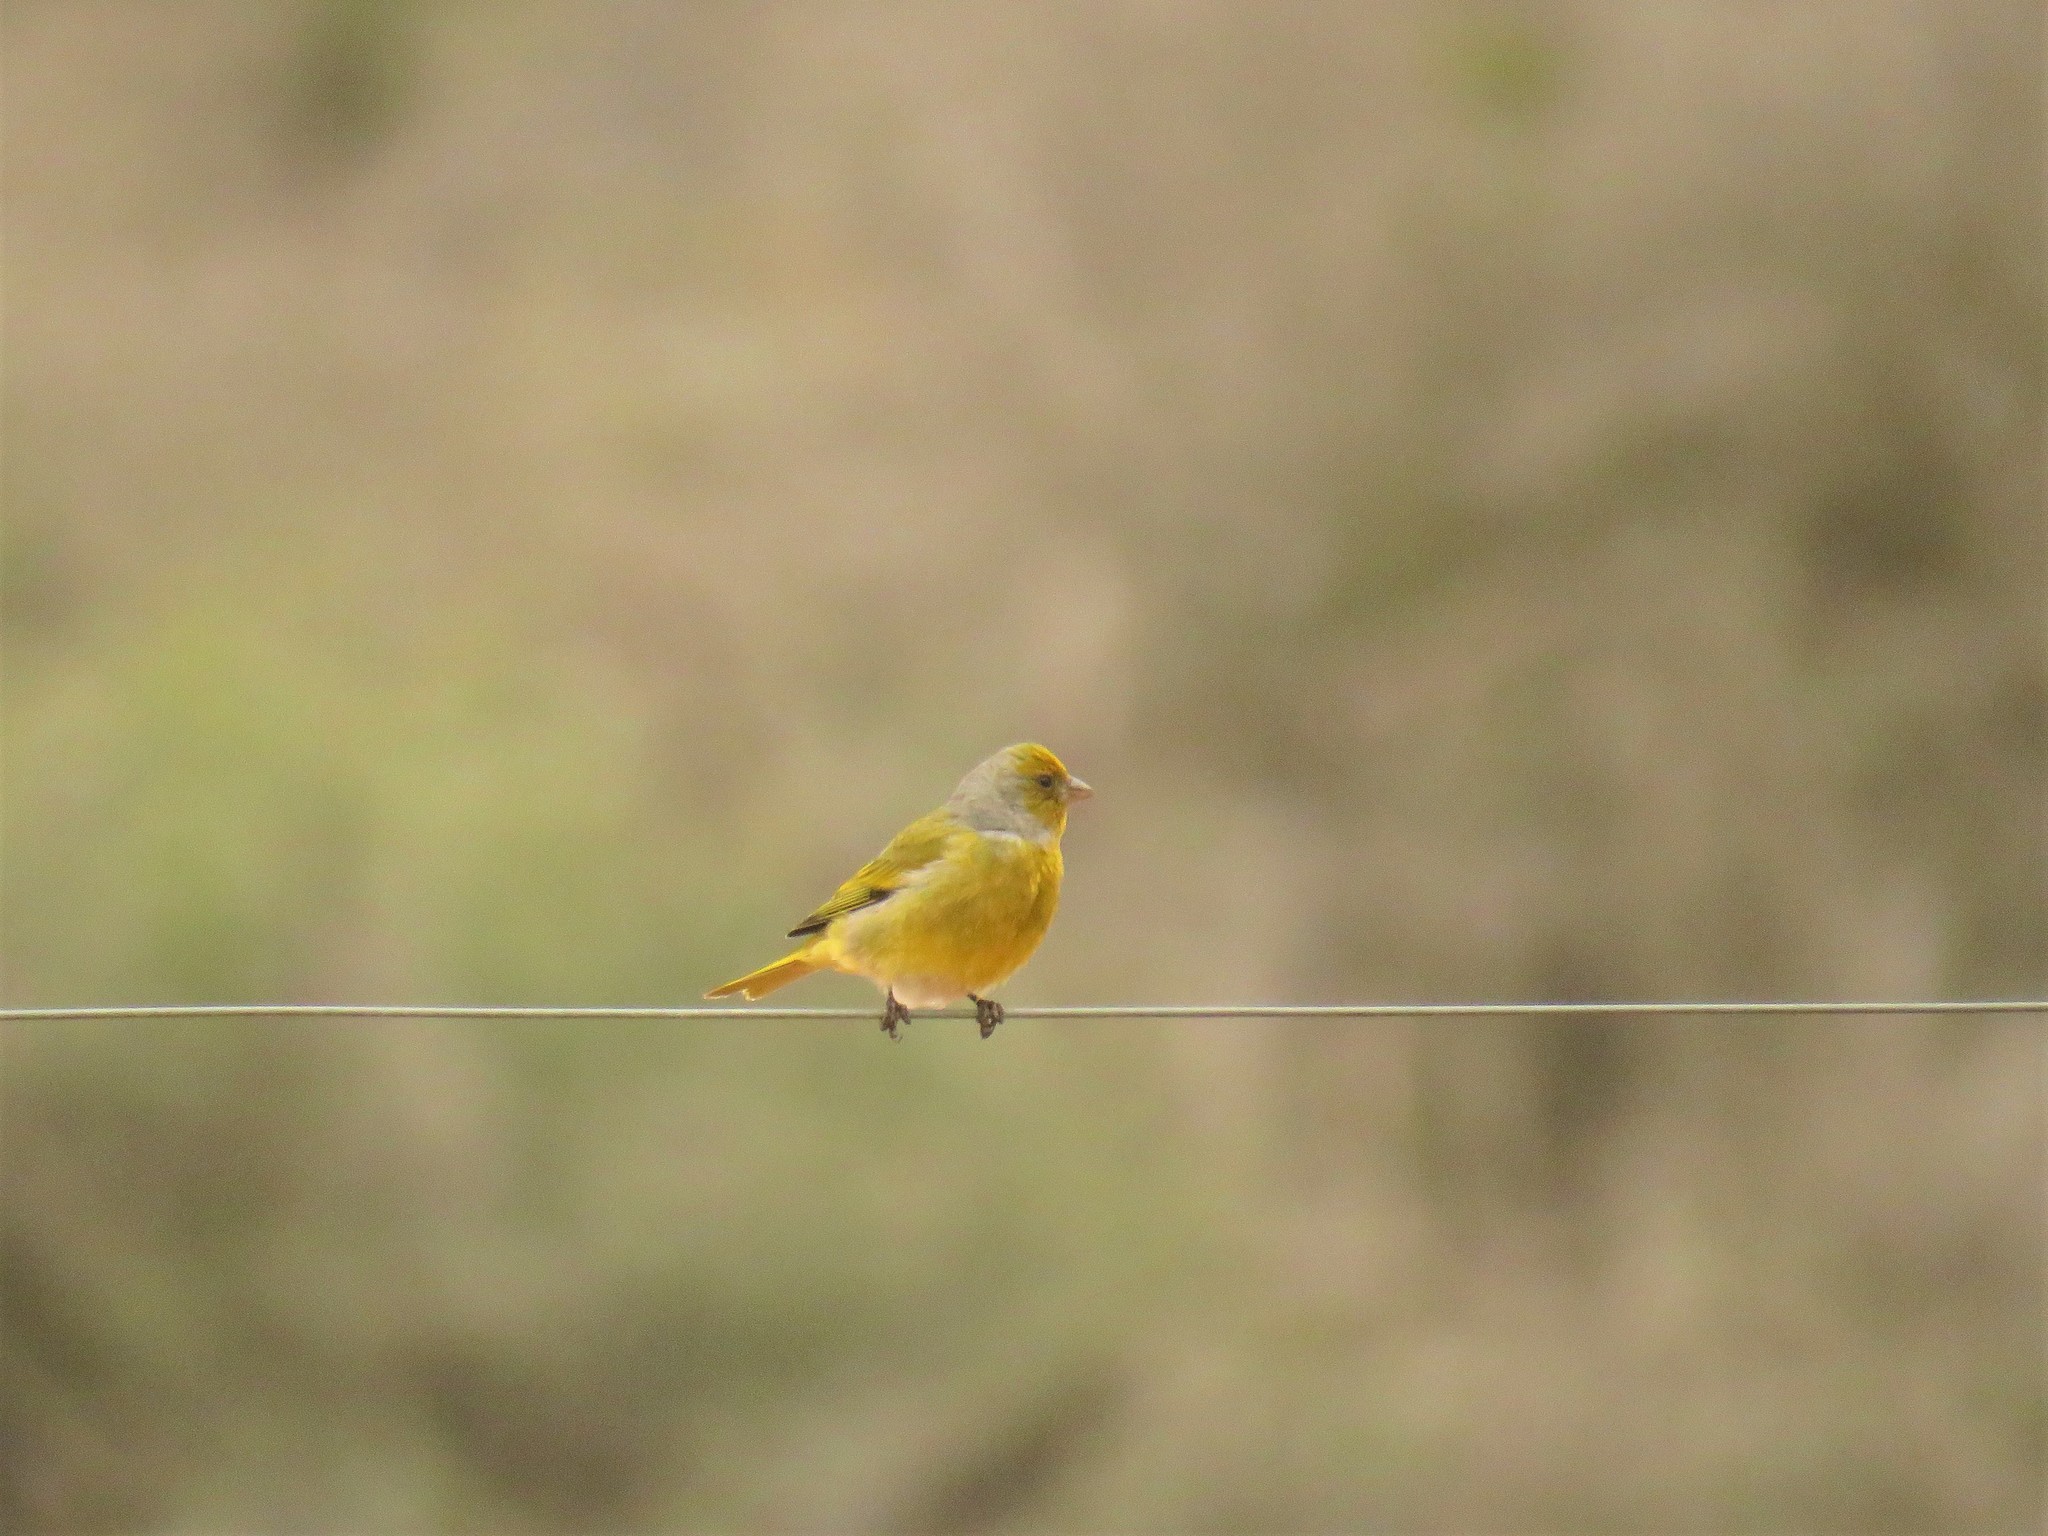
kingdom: Animalia
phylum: Chordata
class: Aves
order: Passeriformes
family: Fringillidae
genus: Serinus
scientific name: Serinus canicollis
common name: Cape canary
